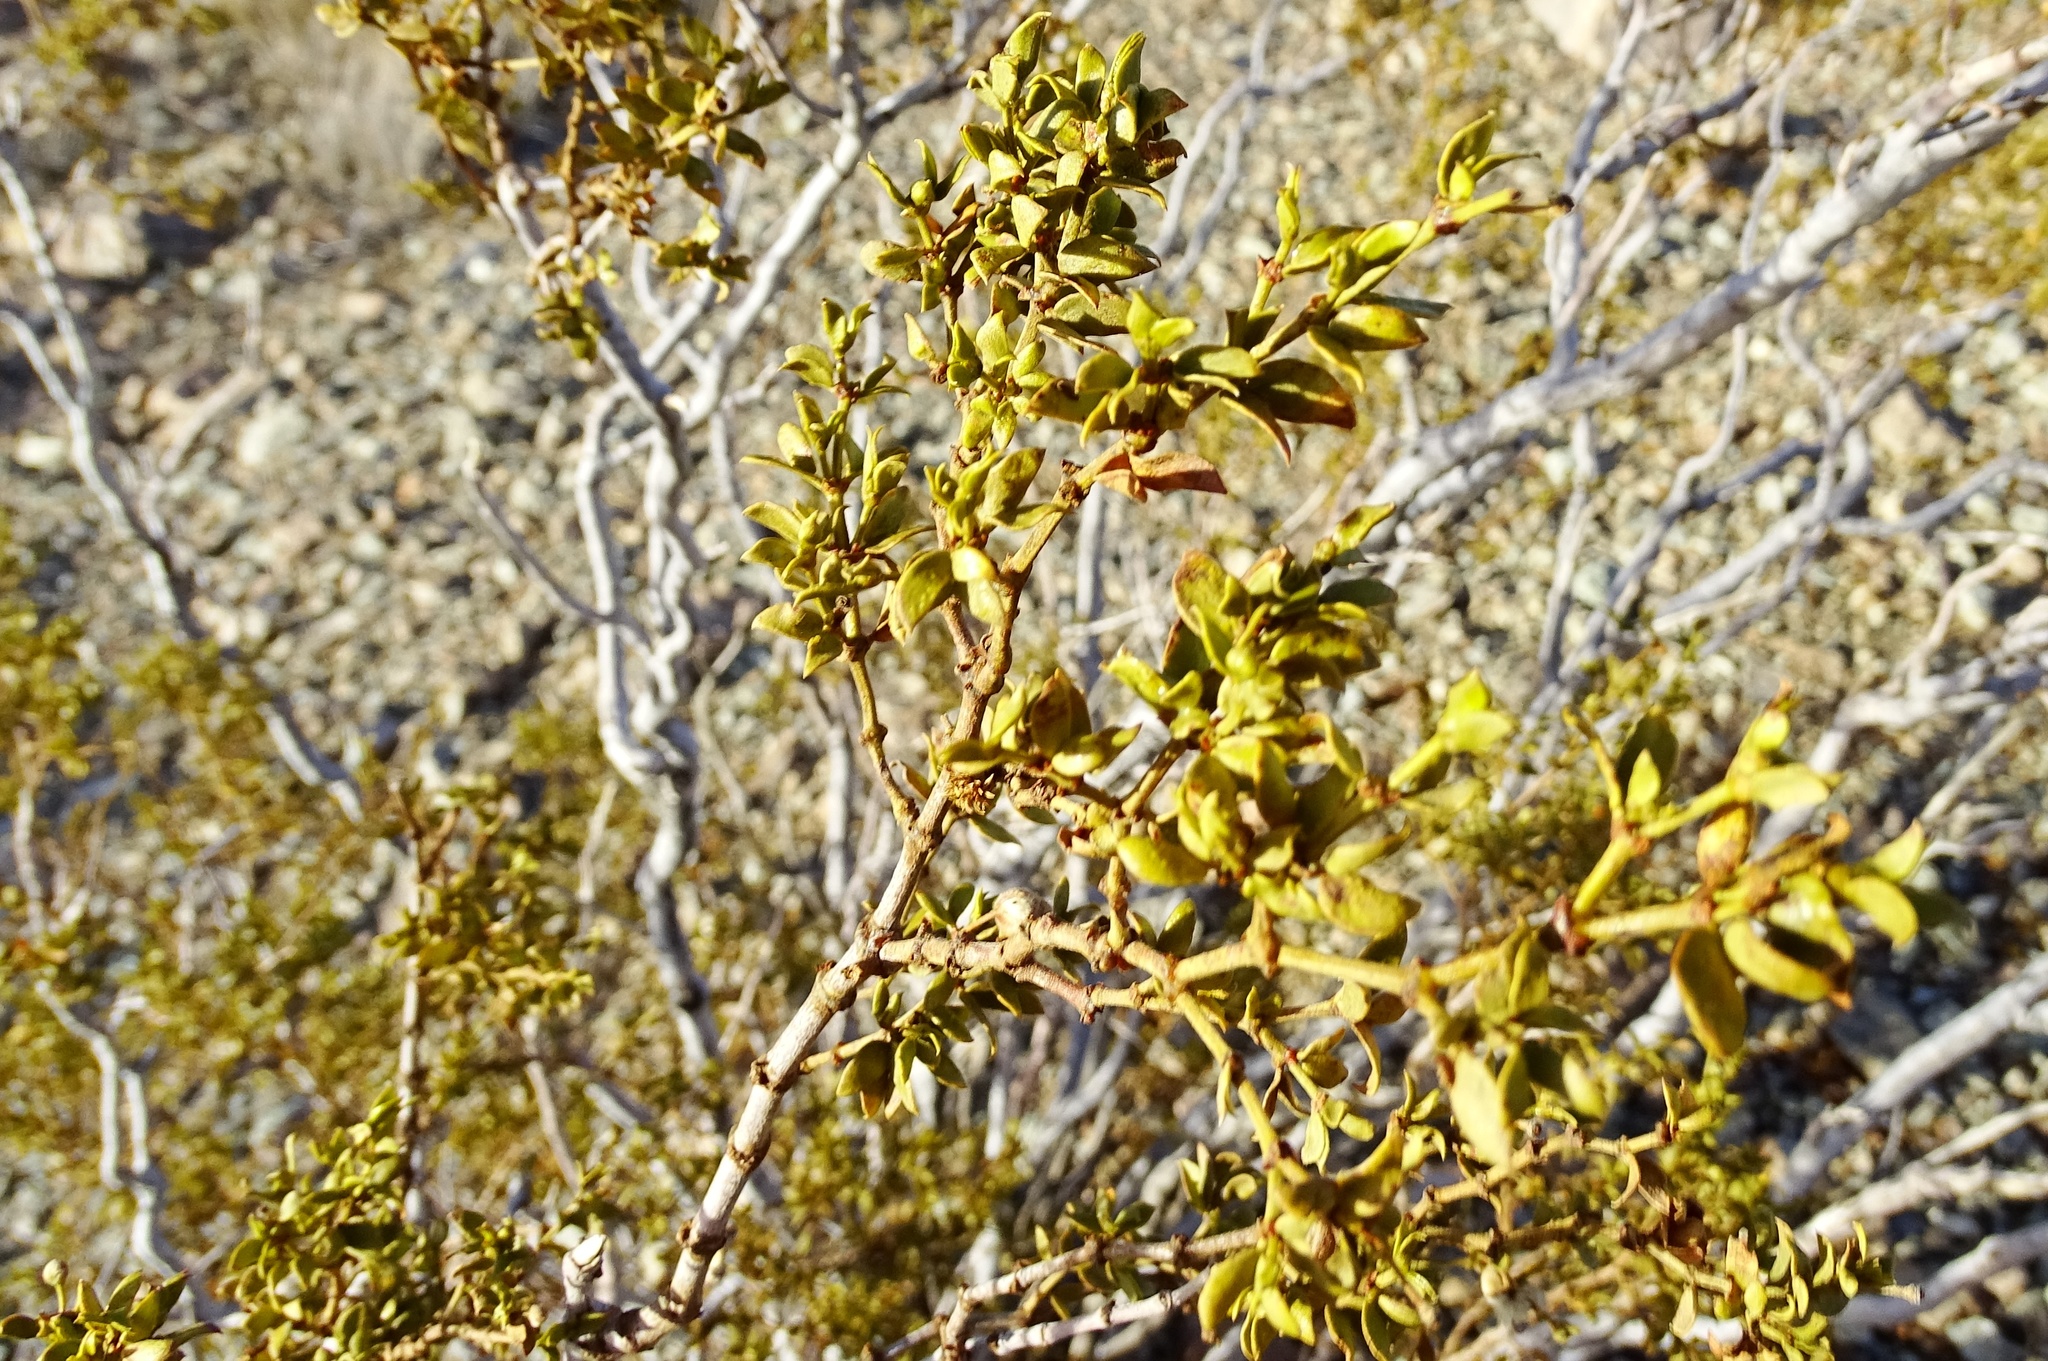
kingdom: Plantae
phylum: Tracheophyta
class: Magnoliopsida
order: Zygophyllales
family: Zygophyllaceae
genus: Larrea
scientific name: Larrea tridentata
